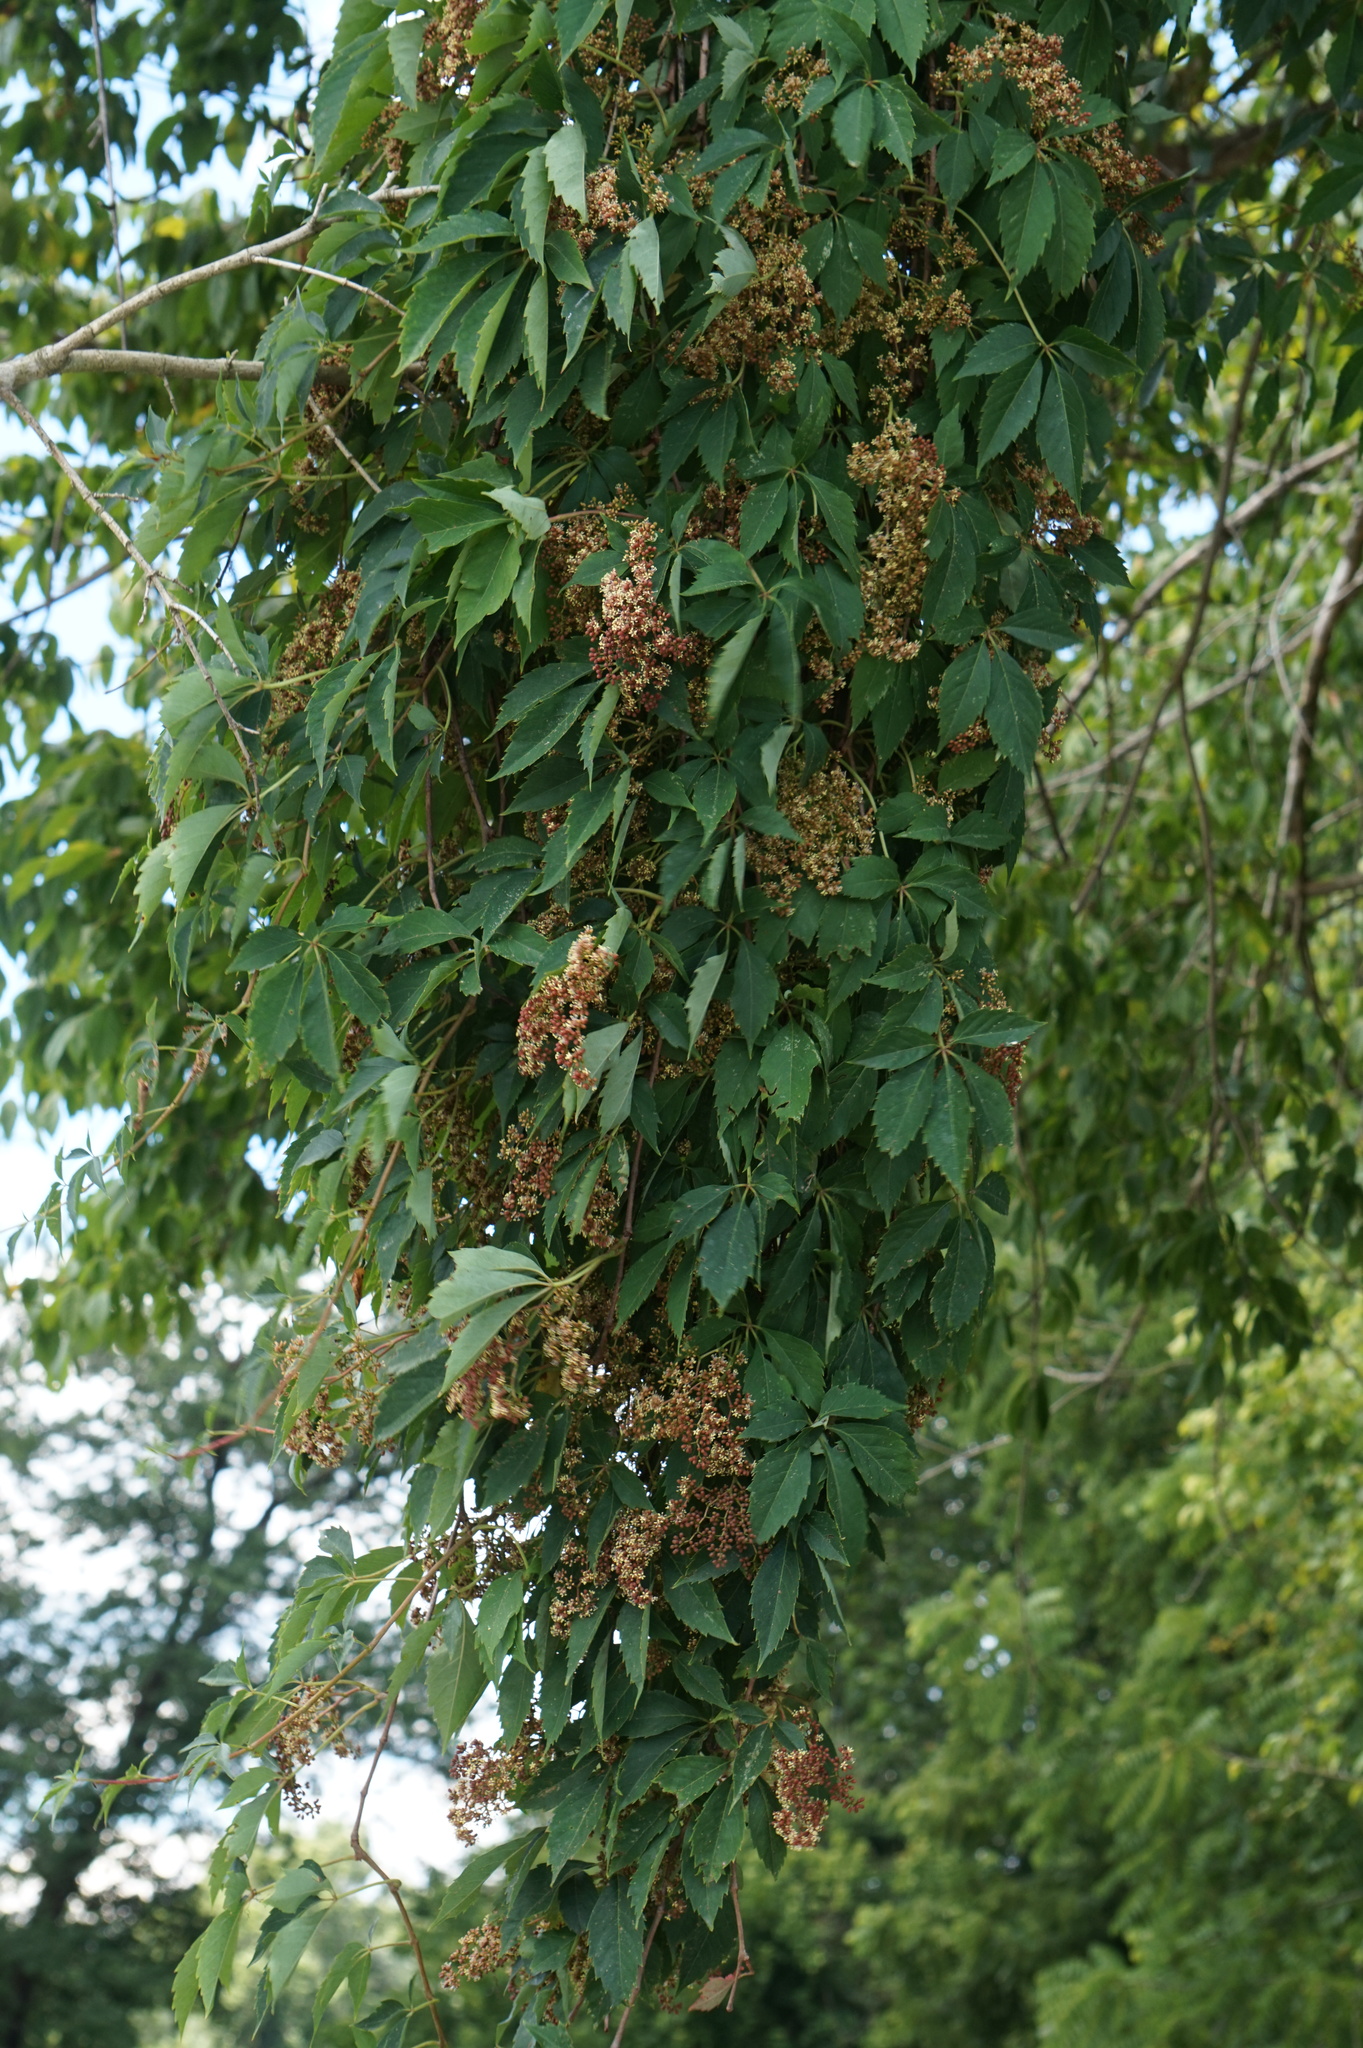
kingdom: Plantae
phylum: Tracheophyta
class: Magnoliopsida
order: Vitales
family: Vitaceae
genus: Parthenocissus
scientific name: Parthenocissus quinquefolia
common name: Virginia-creeper
